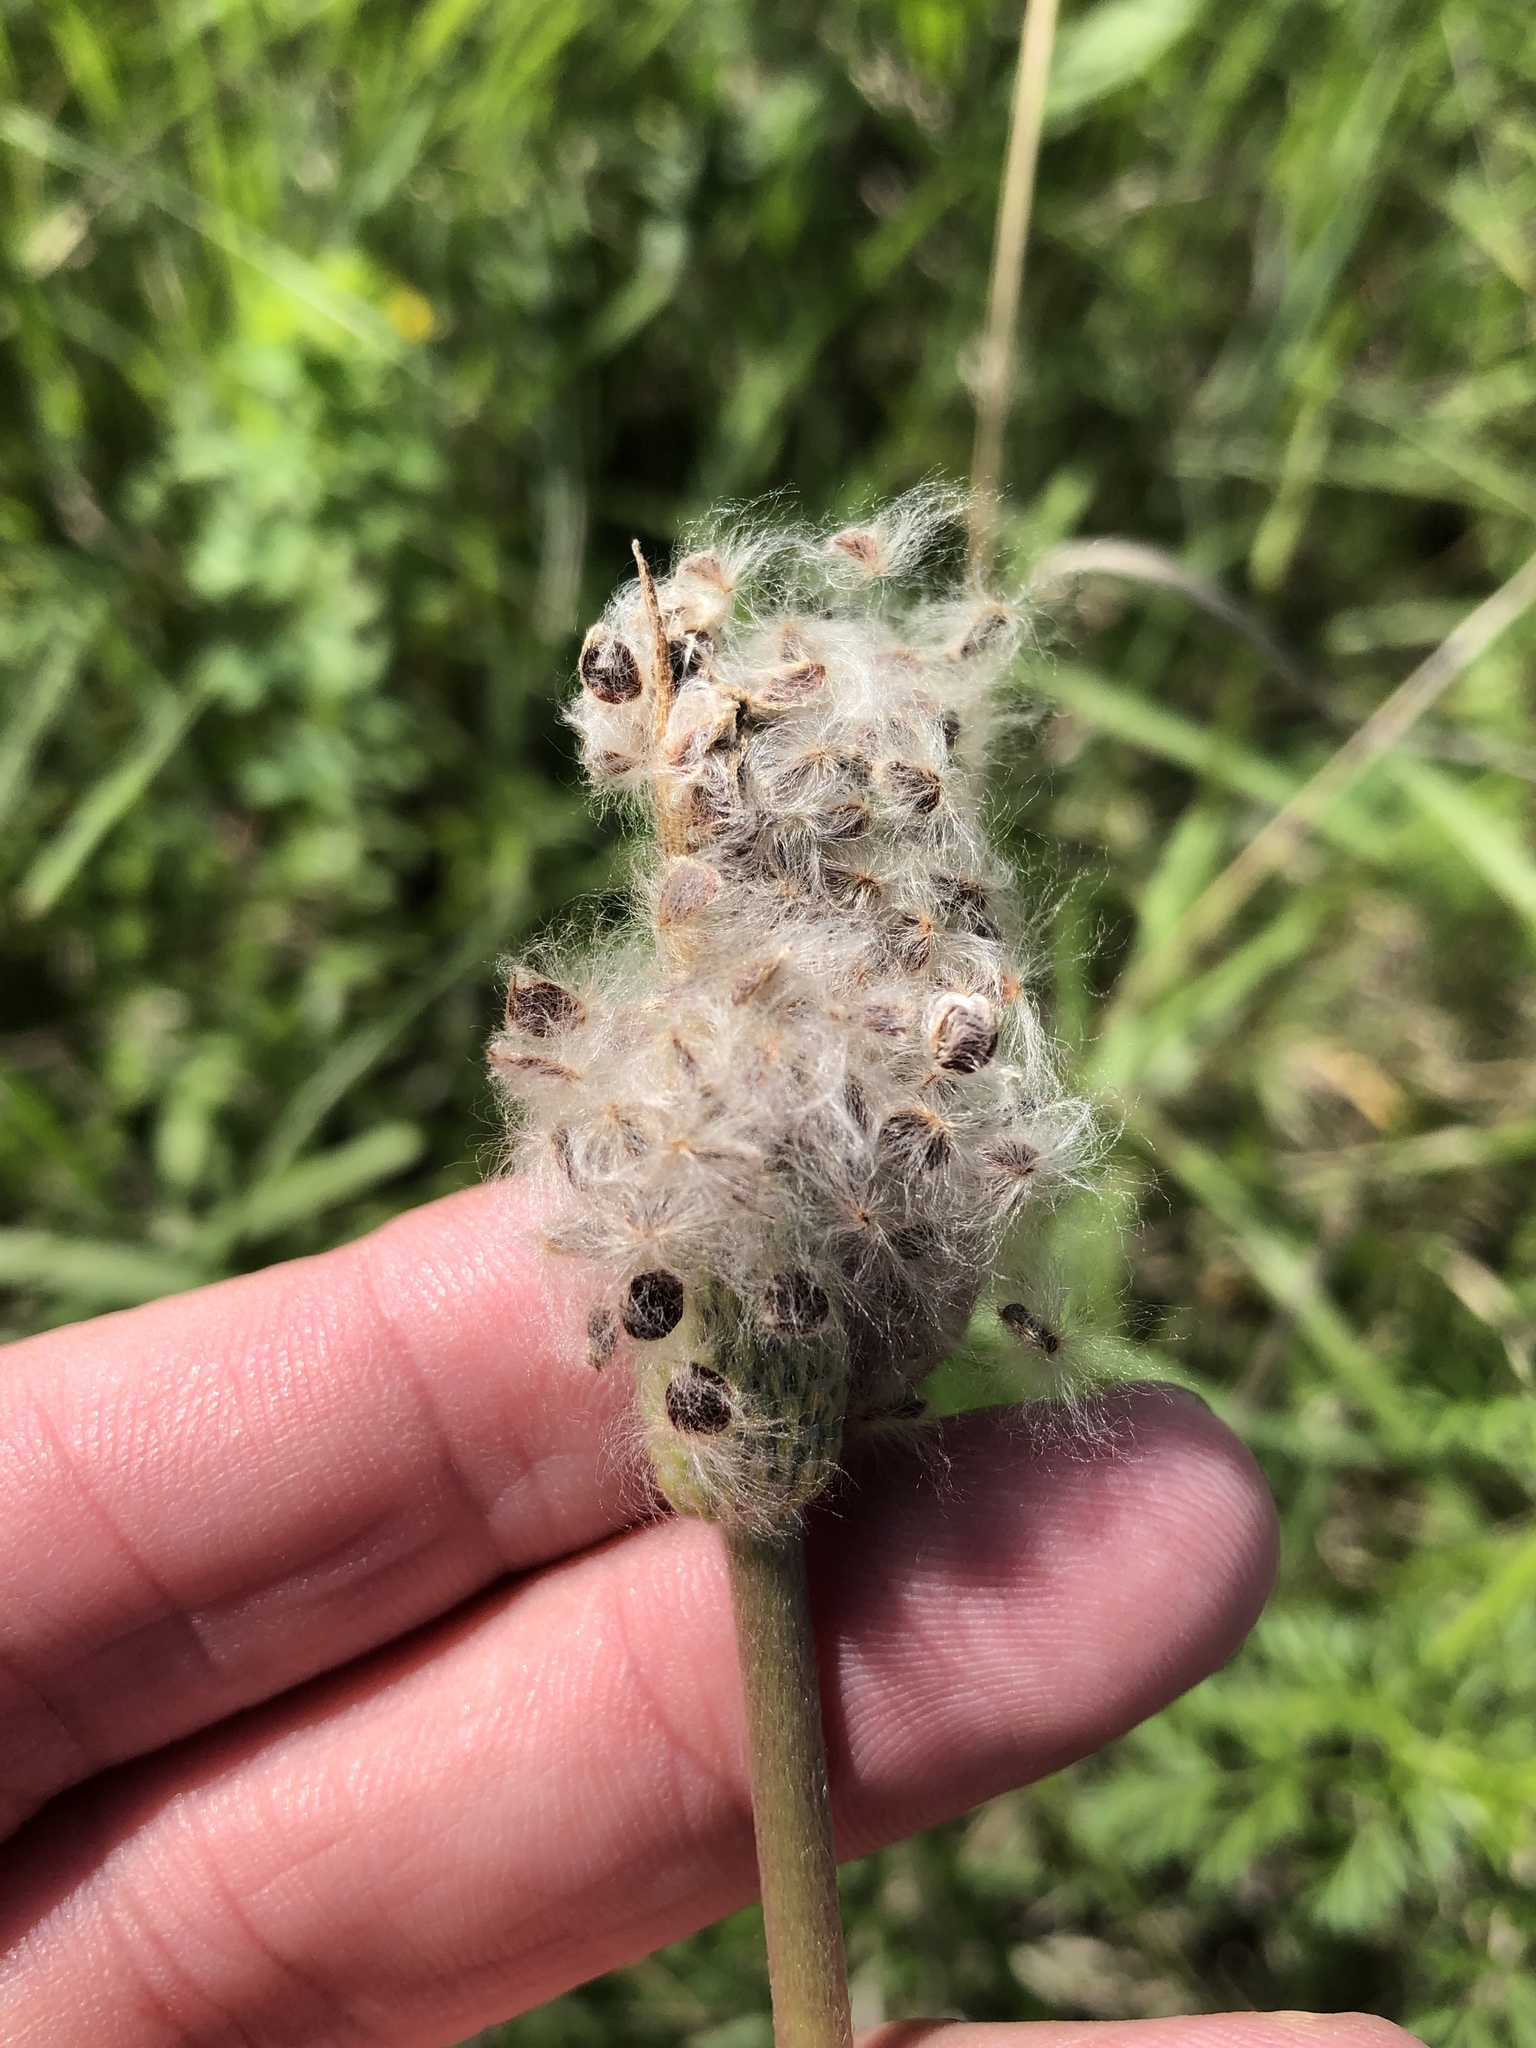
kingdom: Plantae
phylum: Tracheophyta
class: Magnoliopsida
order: Ranunculales
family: Ranunculaceae
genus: Anemone
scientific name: Anemone berlandieri
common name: Ten-petal anemone
